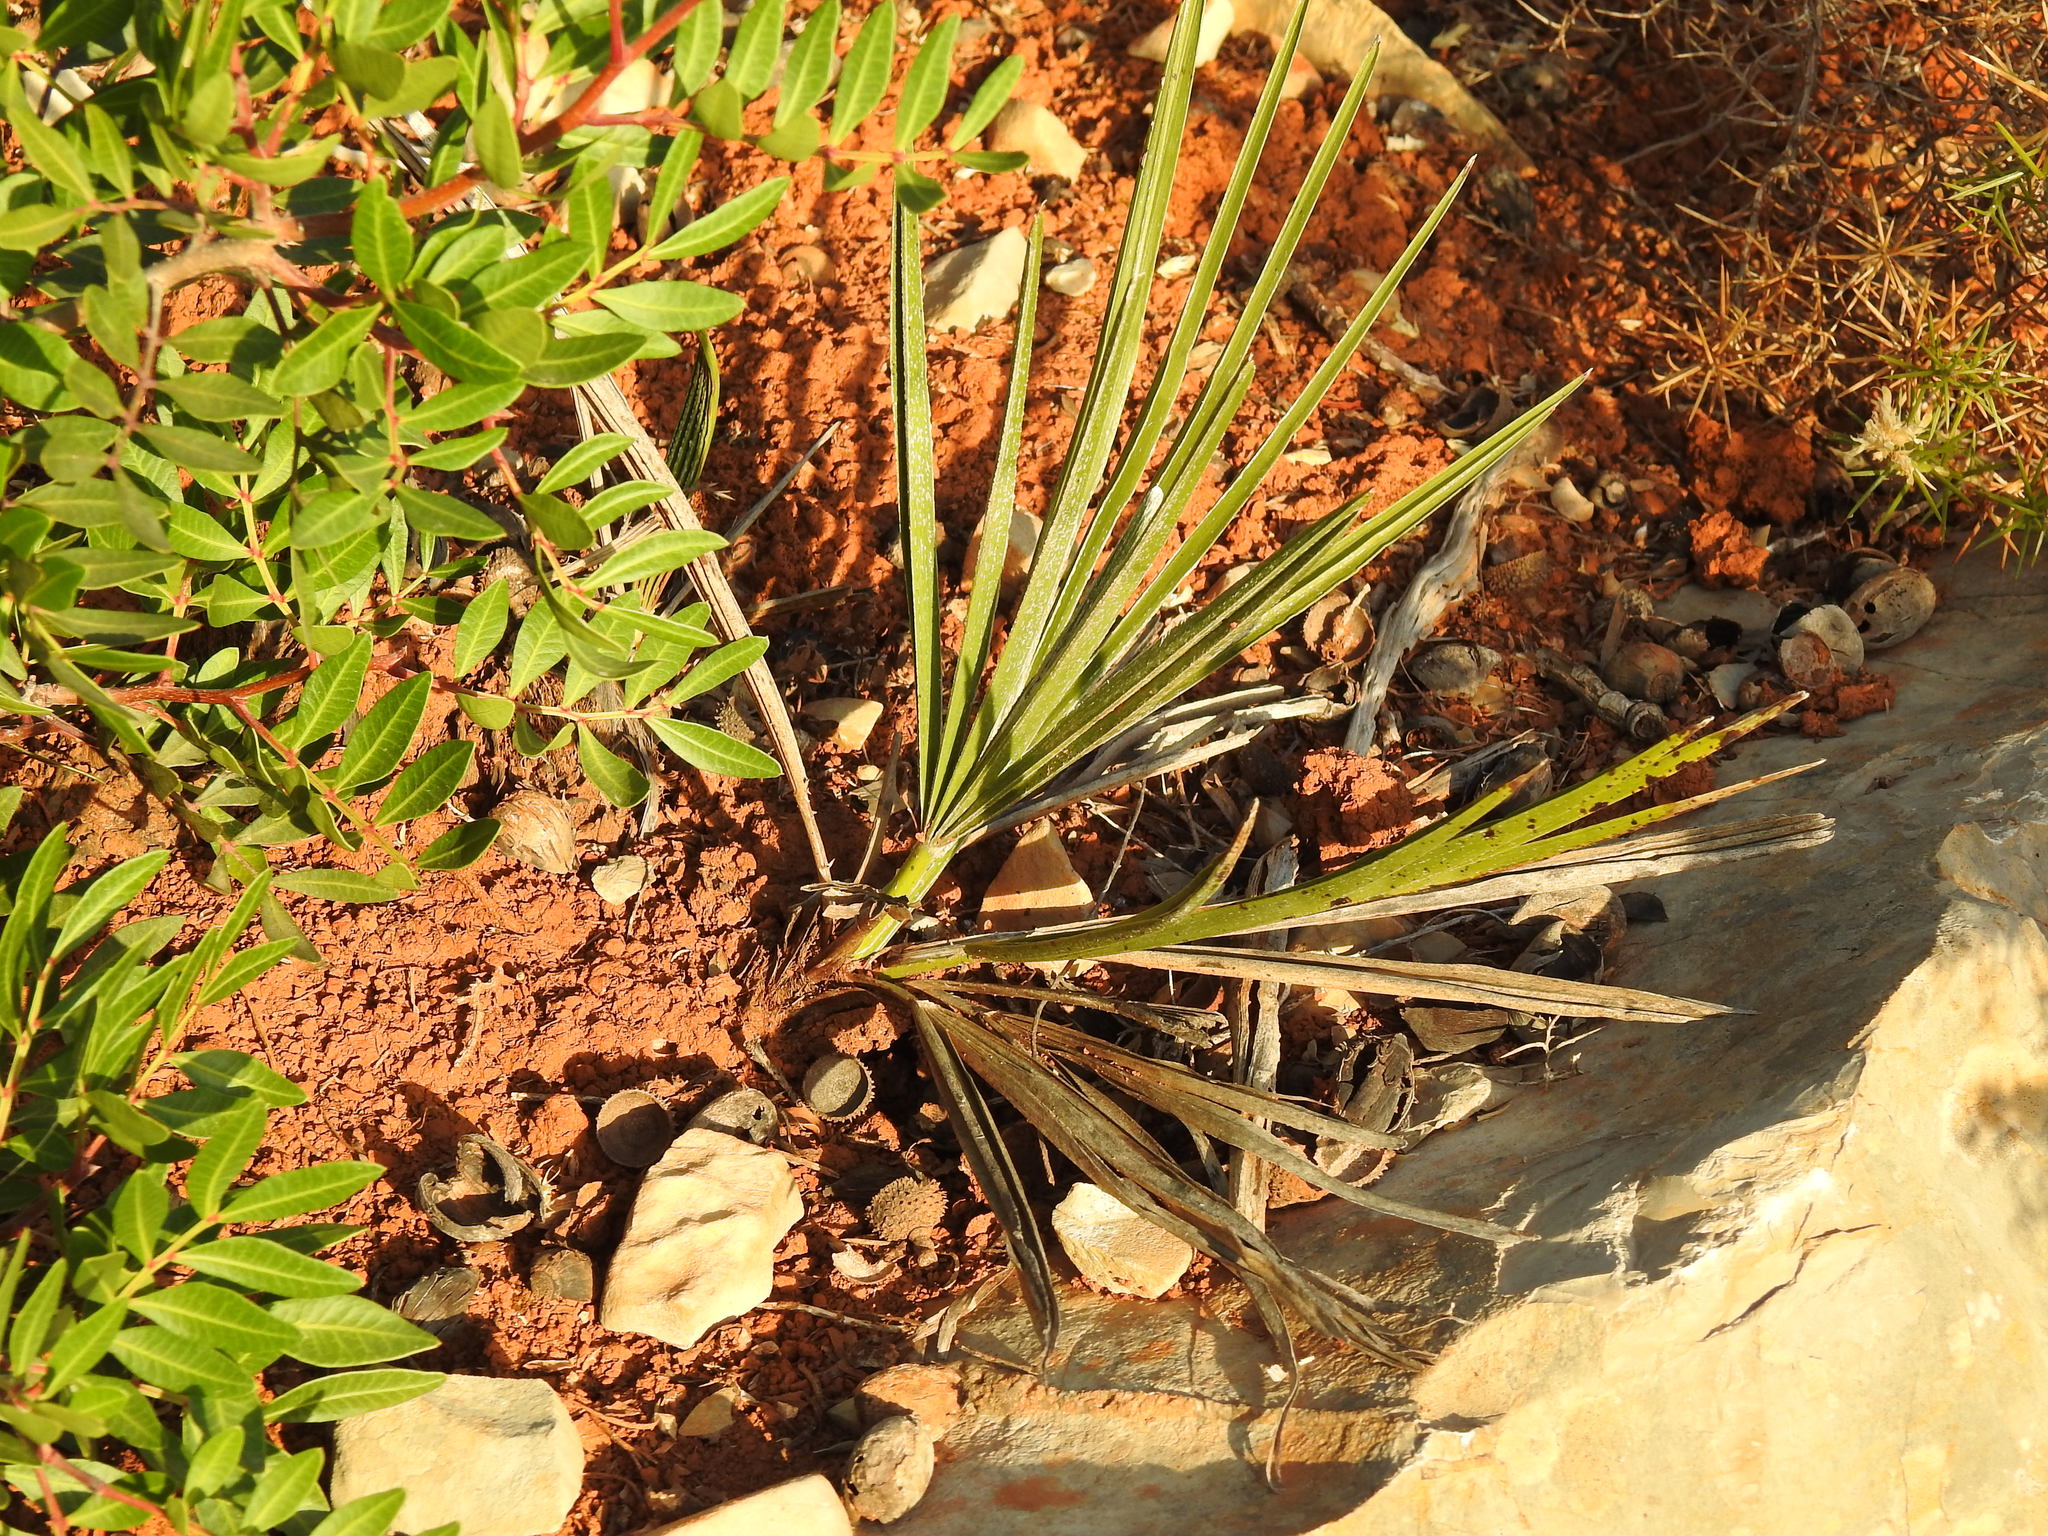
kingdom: Plantae
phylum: Tracheophyta
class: Liliopsida
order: Arecales
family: Arecaceae
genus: Chamaerops
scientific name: Chamaerops humilis
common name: Dwarf fan palm
